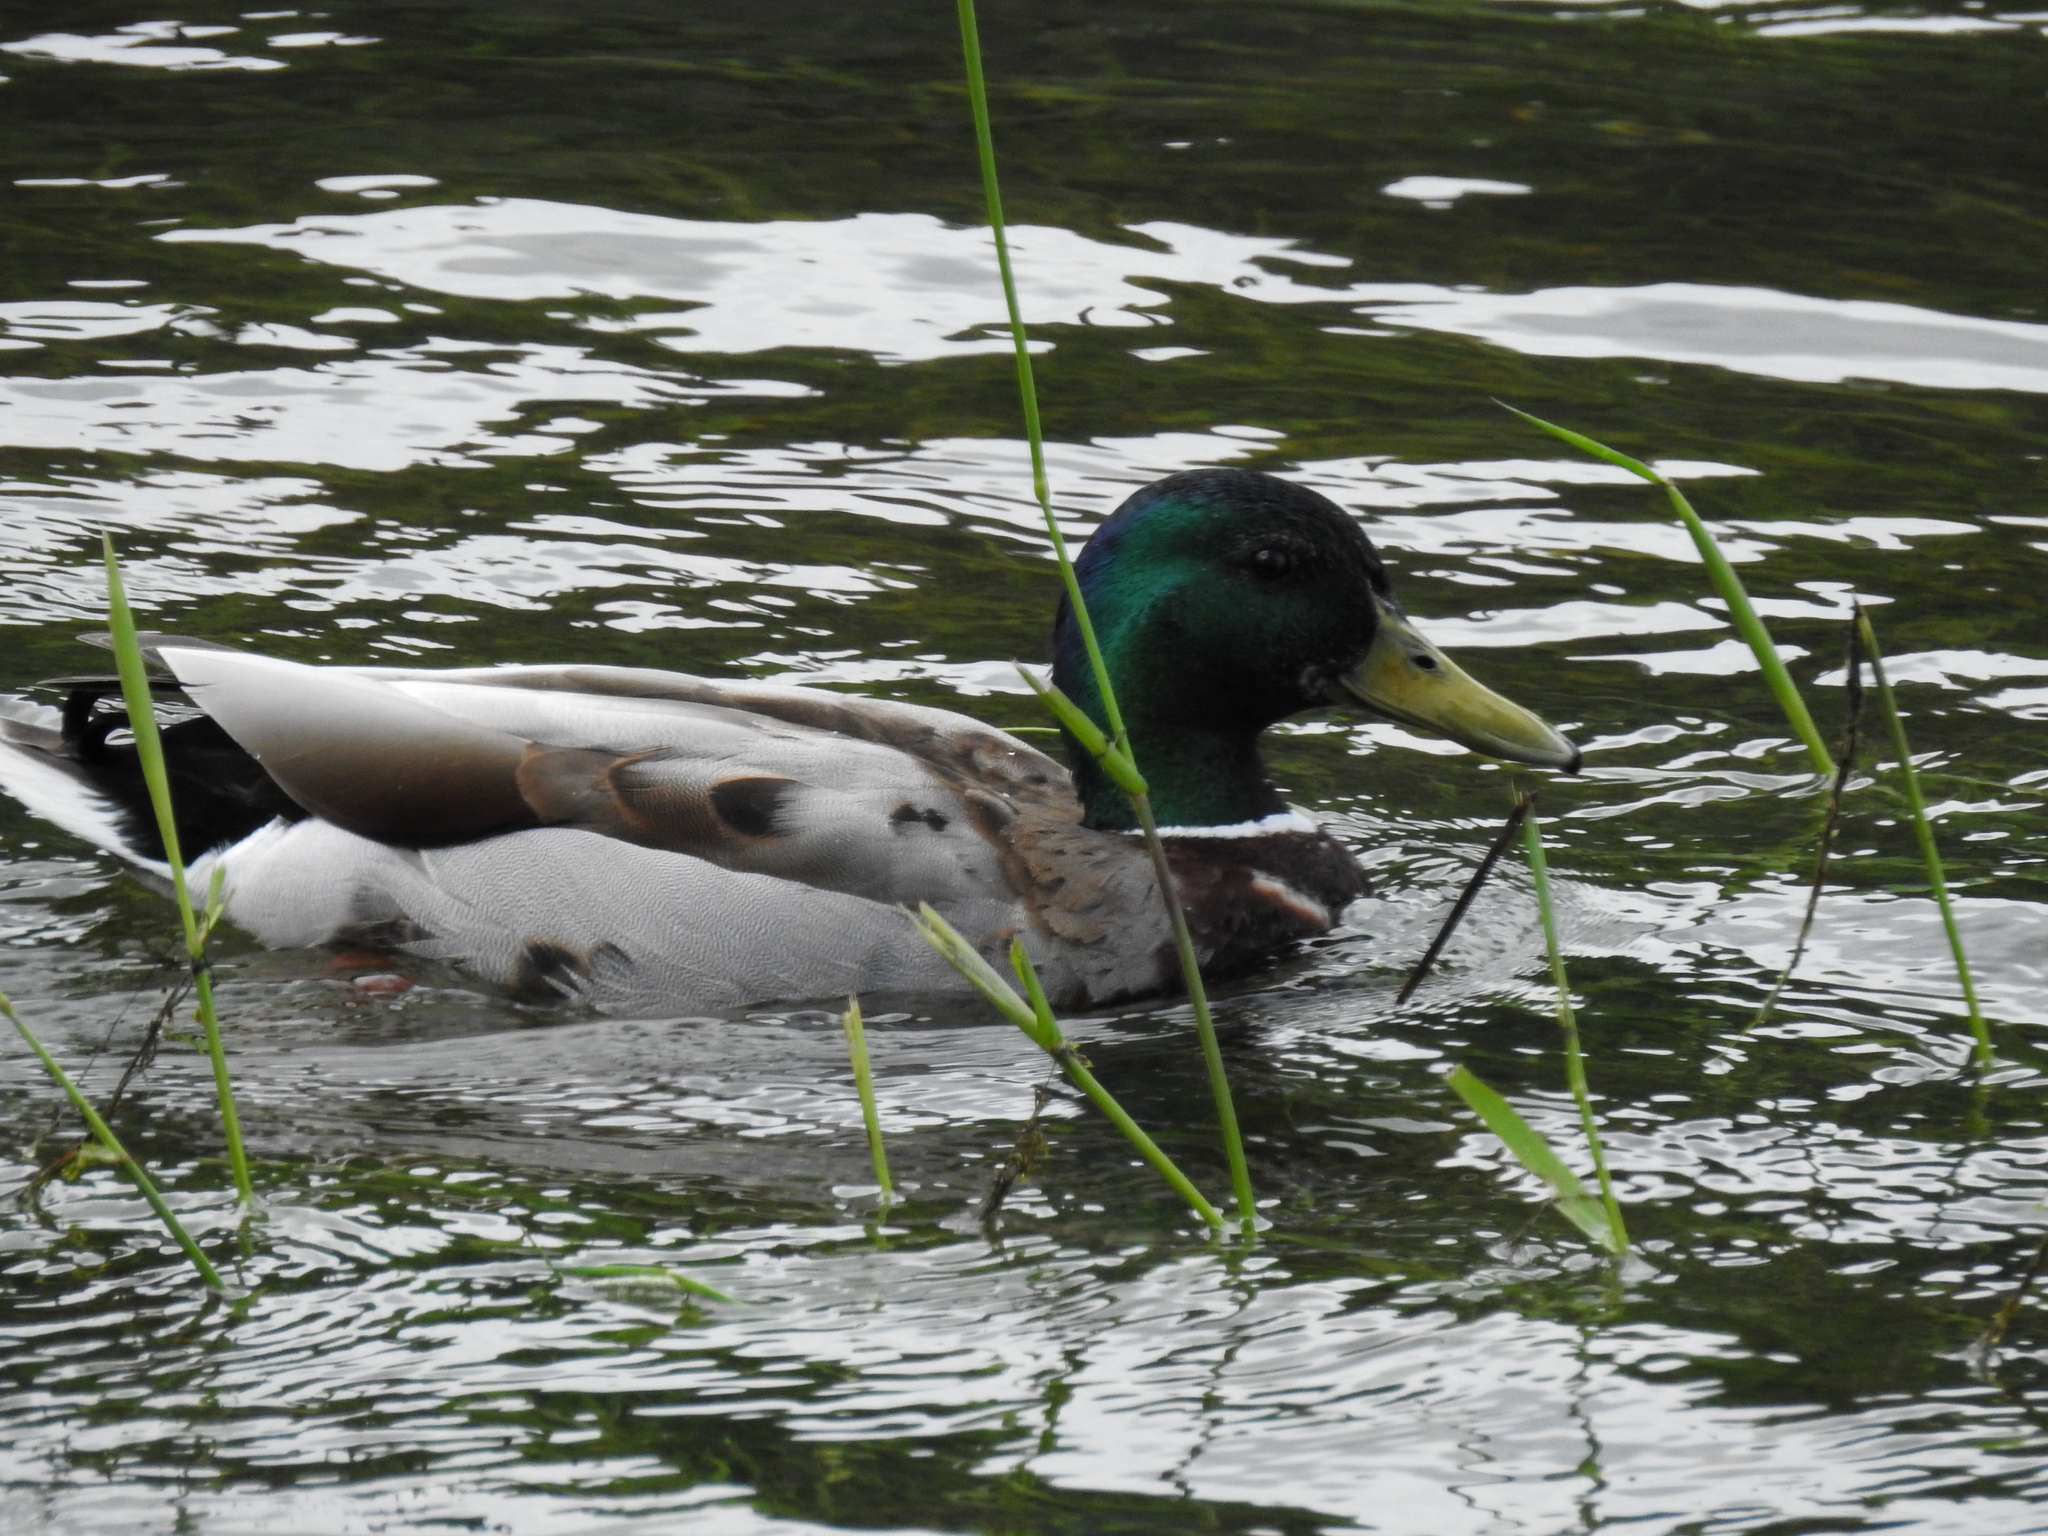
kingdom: Animalia
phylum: Chordata
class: Aves
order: Anseriformes
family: Anatidae
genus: Anas
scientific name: Anas platyrhynchos
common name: Mallard
